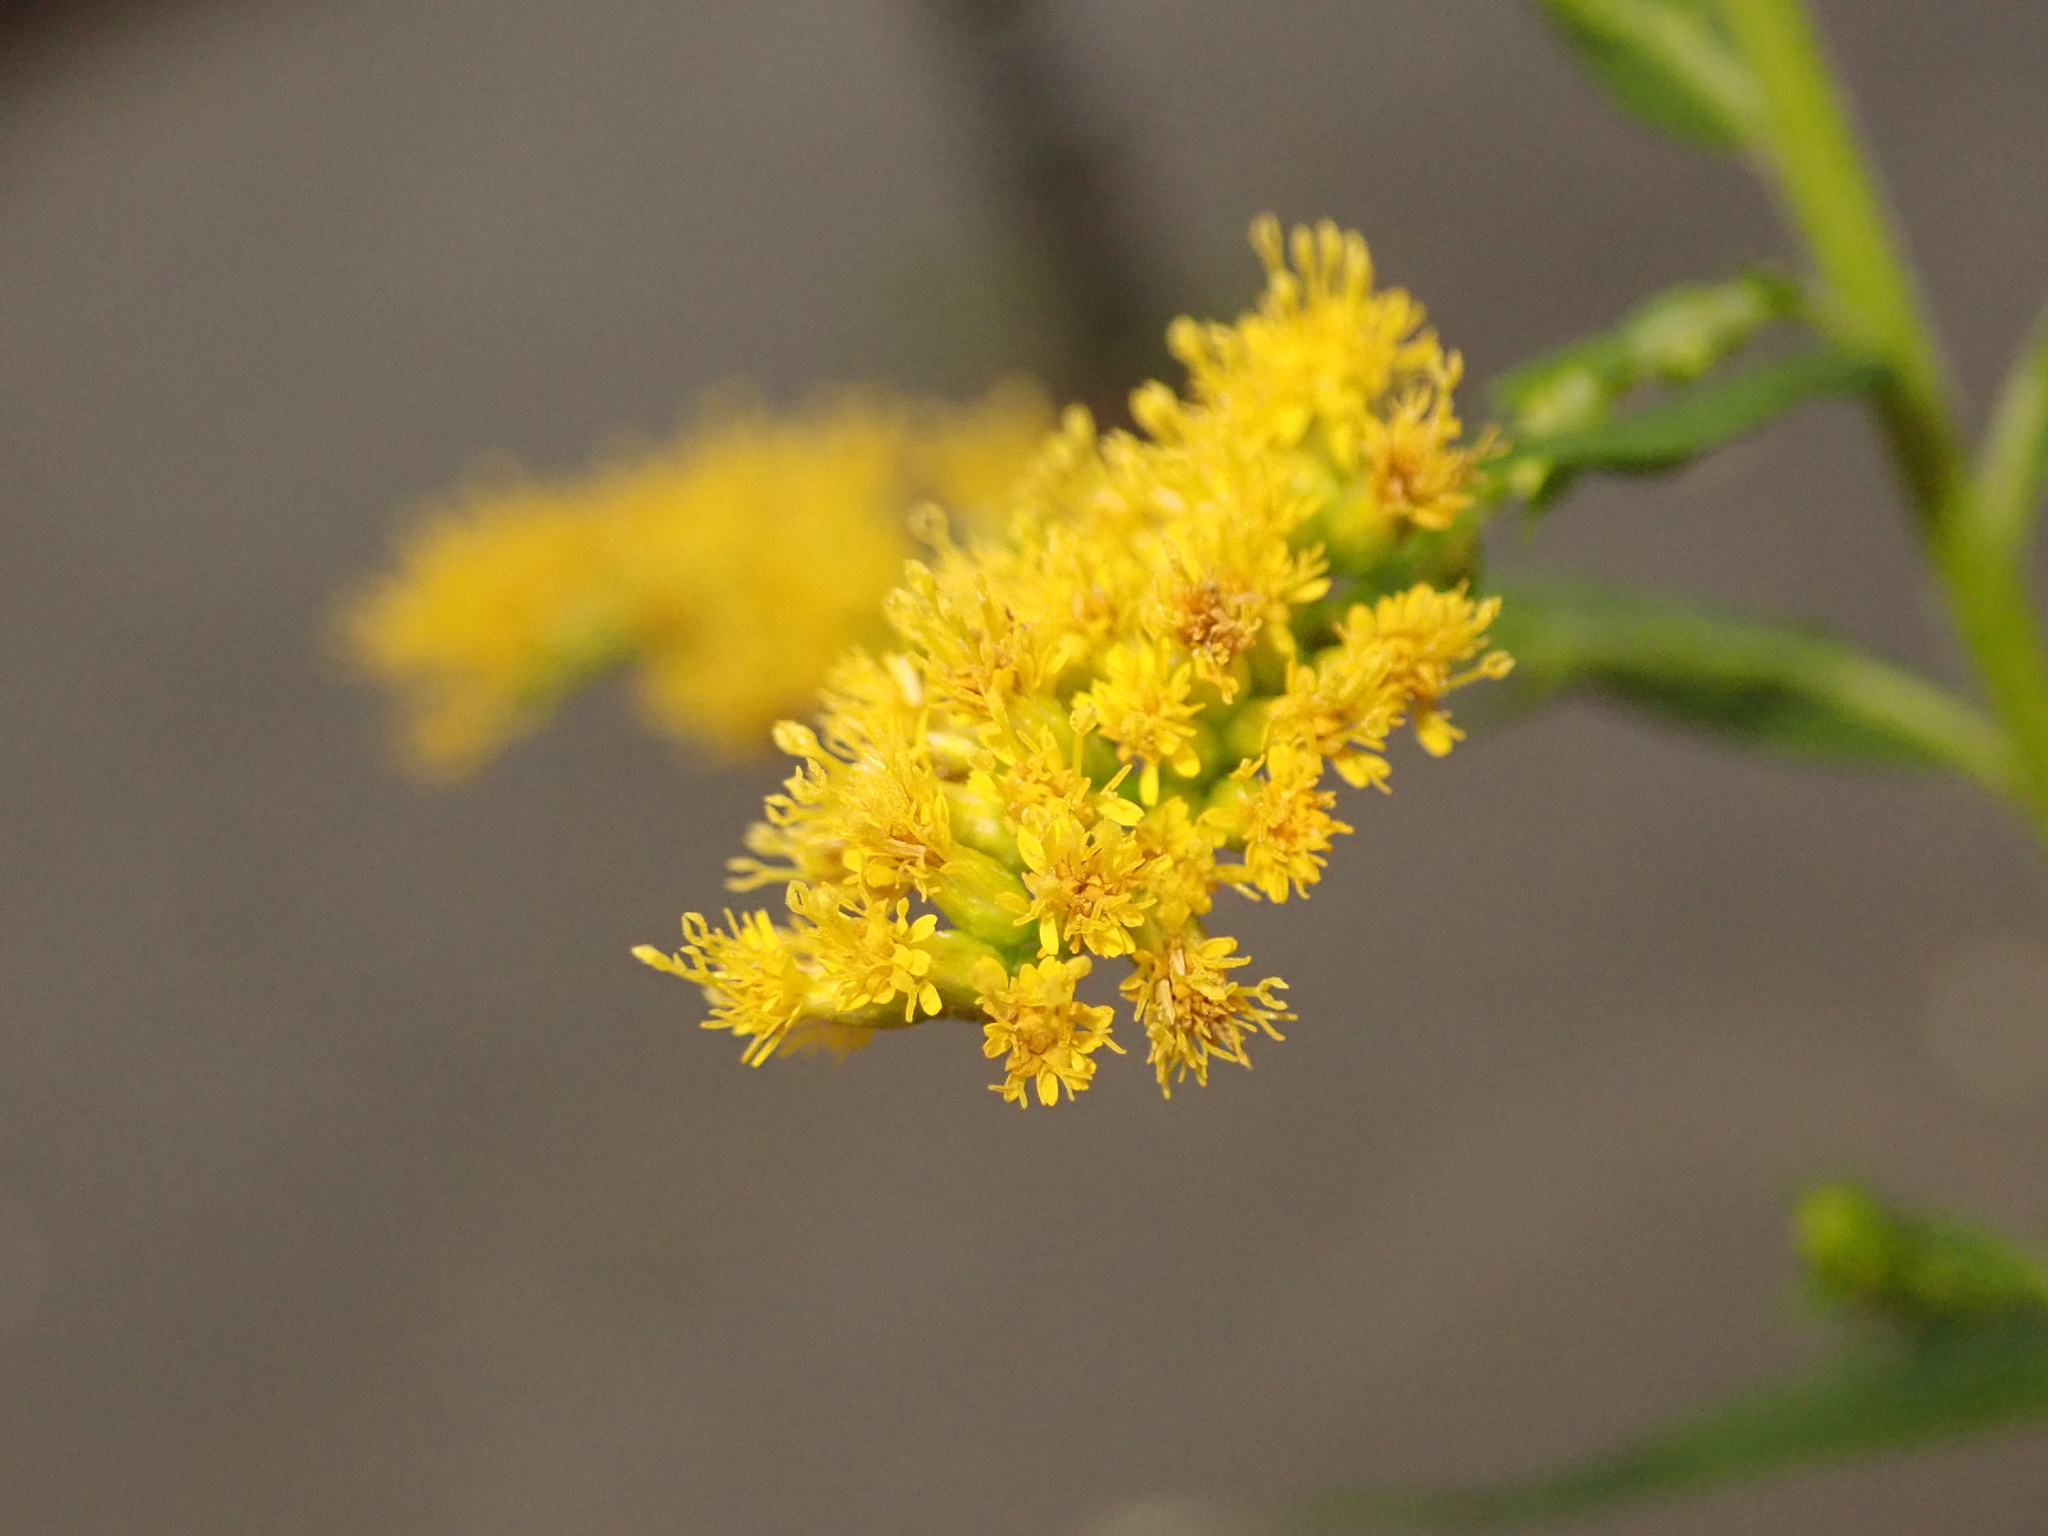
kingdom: Plantae
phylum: Tracheophyta
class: Magnoliopsida
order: Asterales
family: Asteraceae
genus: Solidago
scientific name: Solidago canadensis
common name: Canada goldenrod
